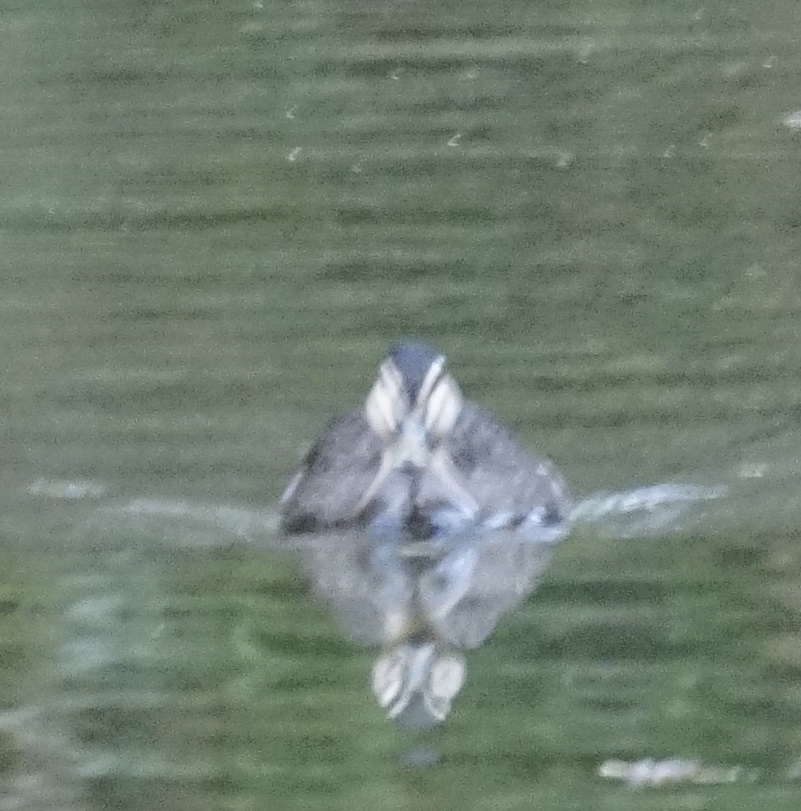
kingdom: Animalia
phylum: Chordata
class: Aves
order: Anseriformes
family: Anatidae
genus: Anas
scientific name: Anas superciliosa
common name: Pacific black duck
